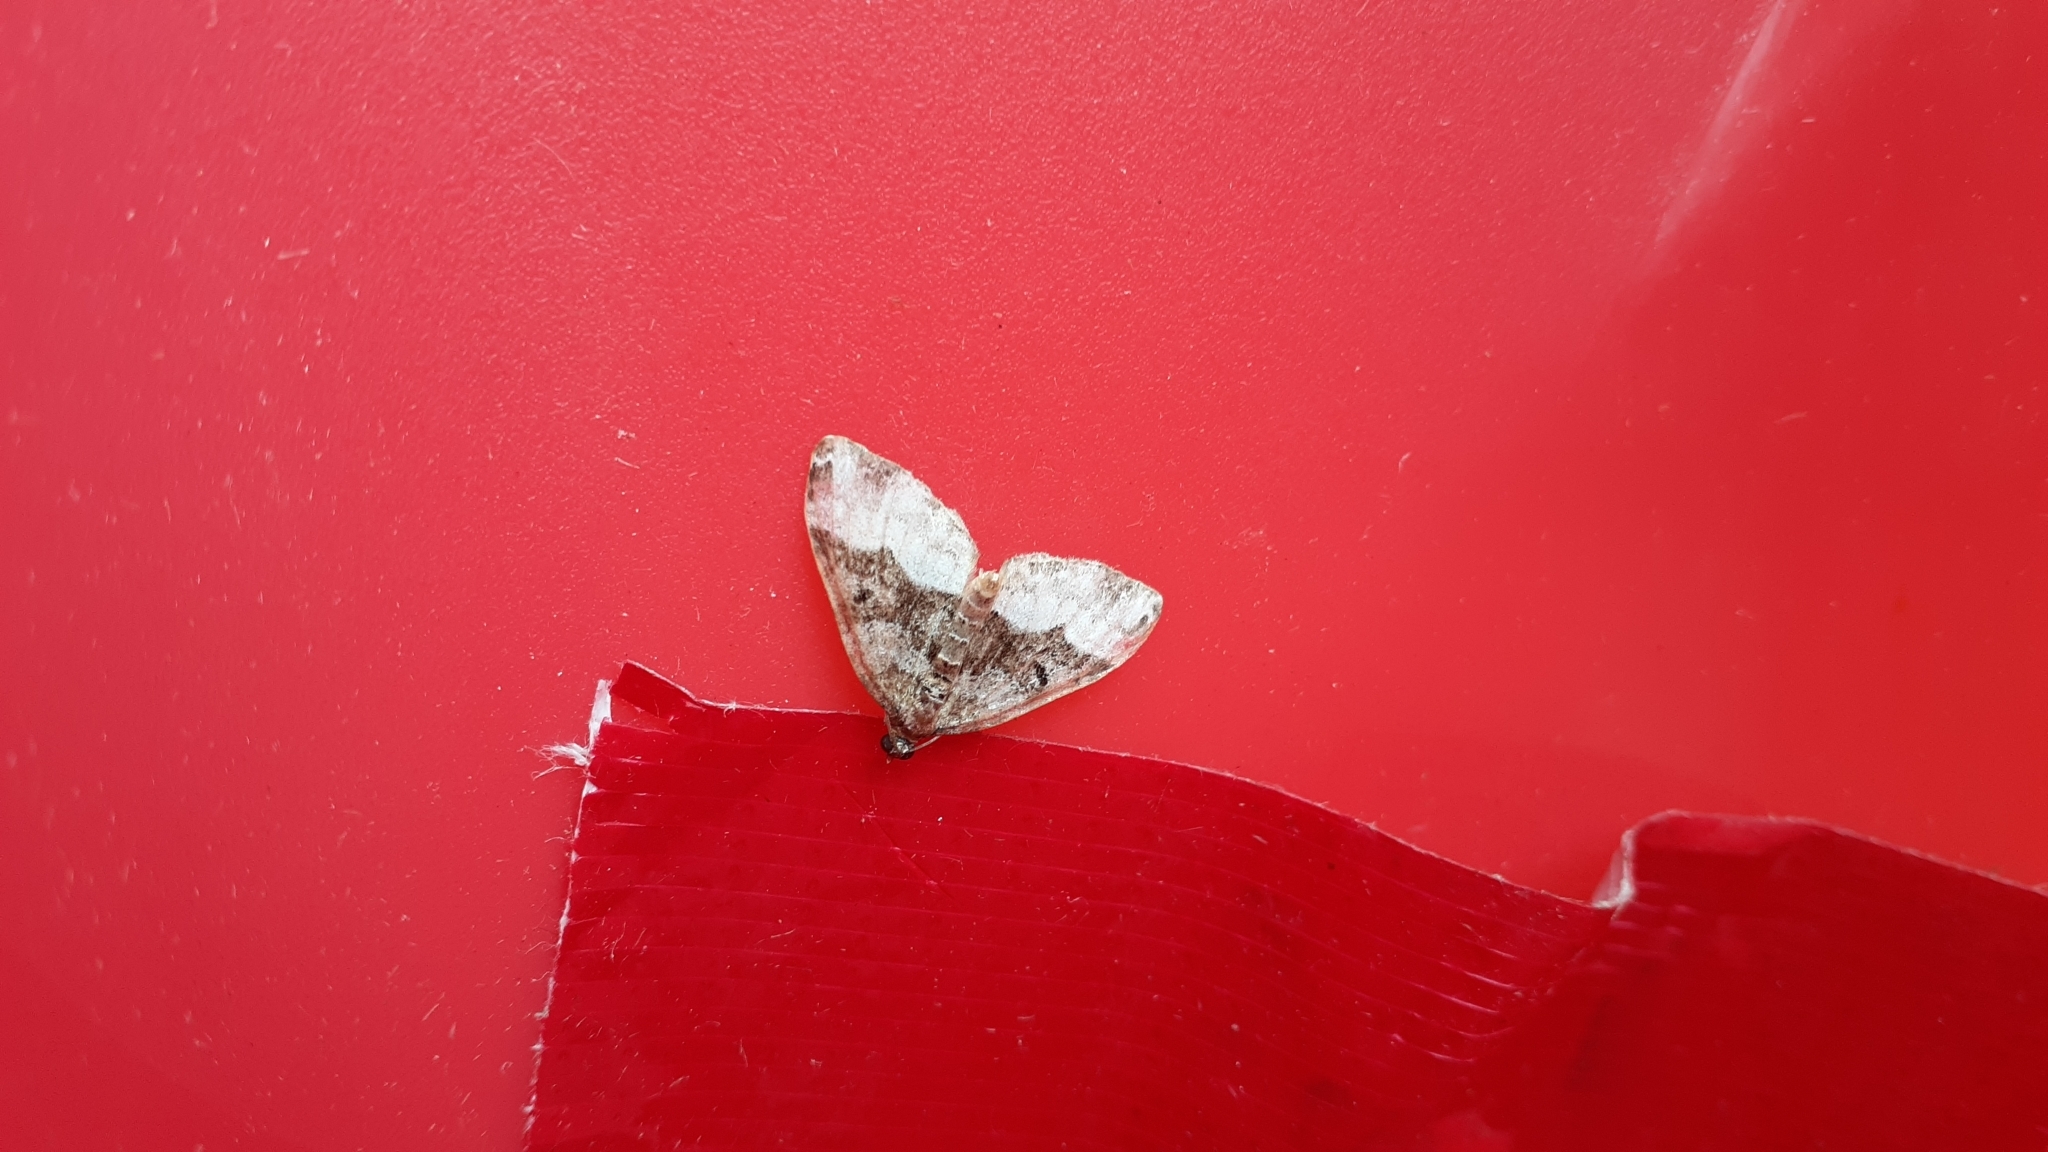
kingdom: Animalia
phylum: Arthropoda
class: Insecta
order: Lepidoptera
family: Geometridae
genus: Euphyia
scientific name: Euphyia intermediata
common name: Sharp-angled carpet
